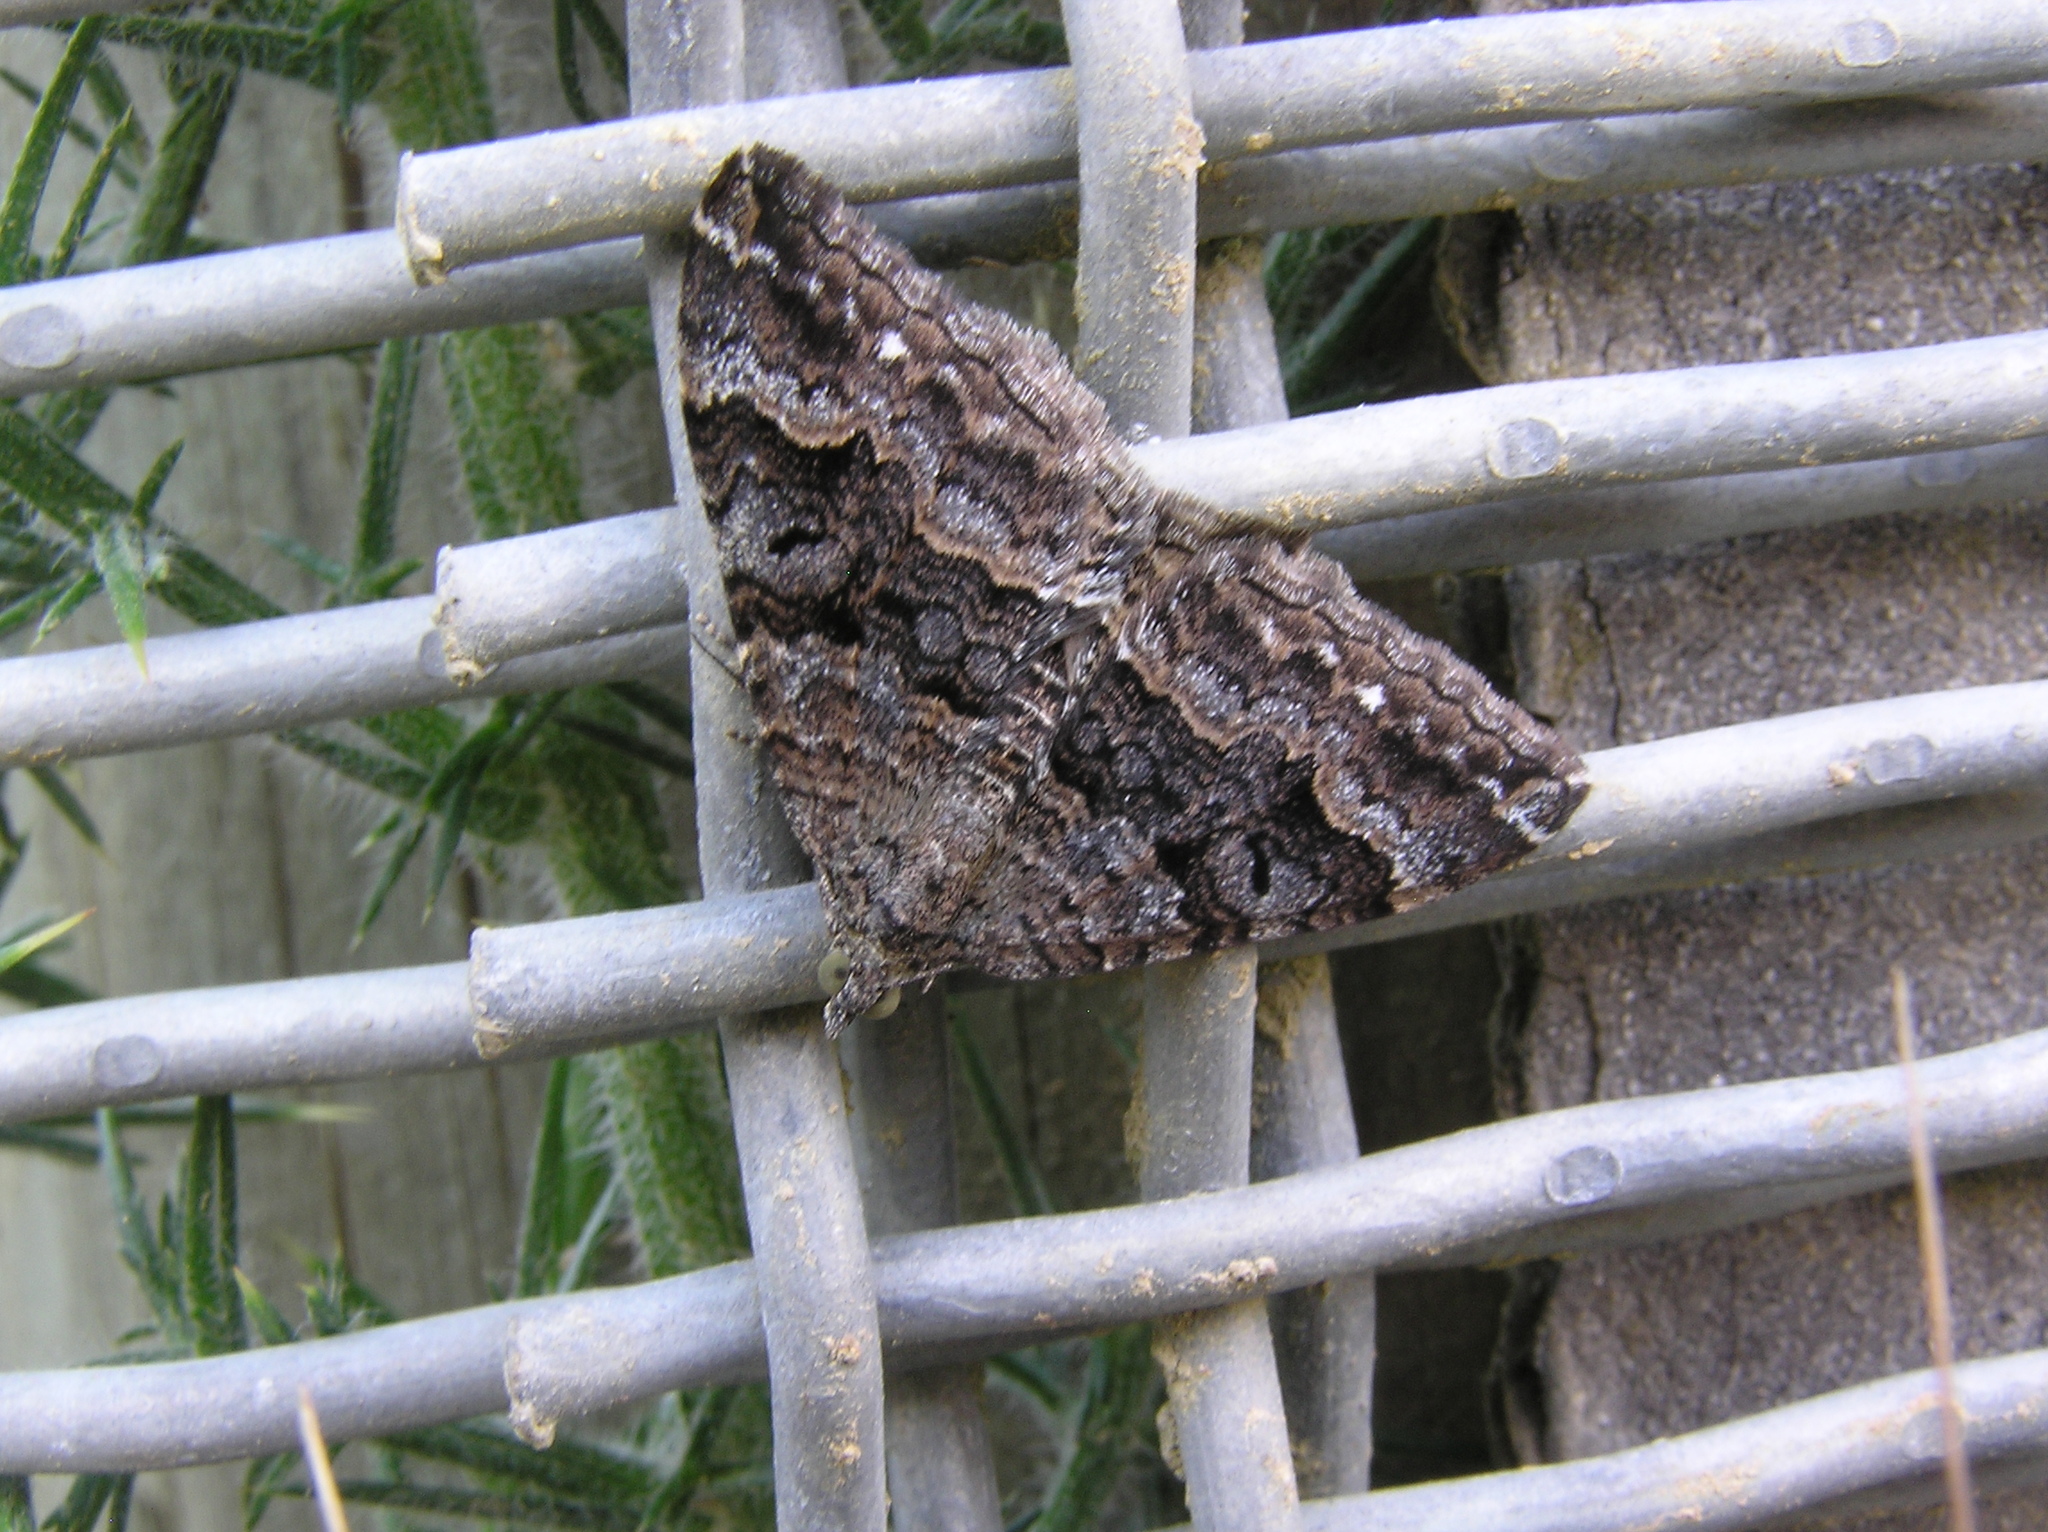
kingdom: Animalia
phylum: Arthropoda
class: Insecta
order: Lepidoptera
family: Geometridae
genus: Hydriomena
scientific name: Hydriomena deltoidata
